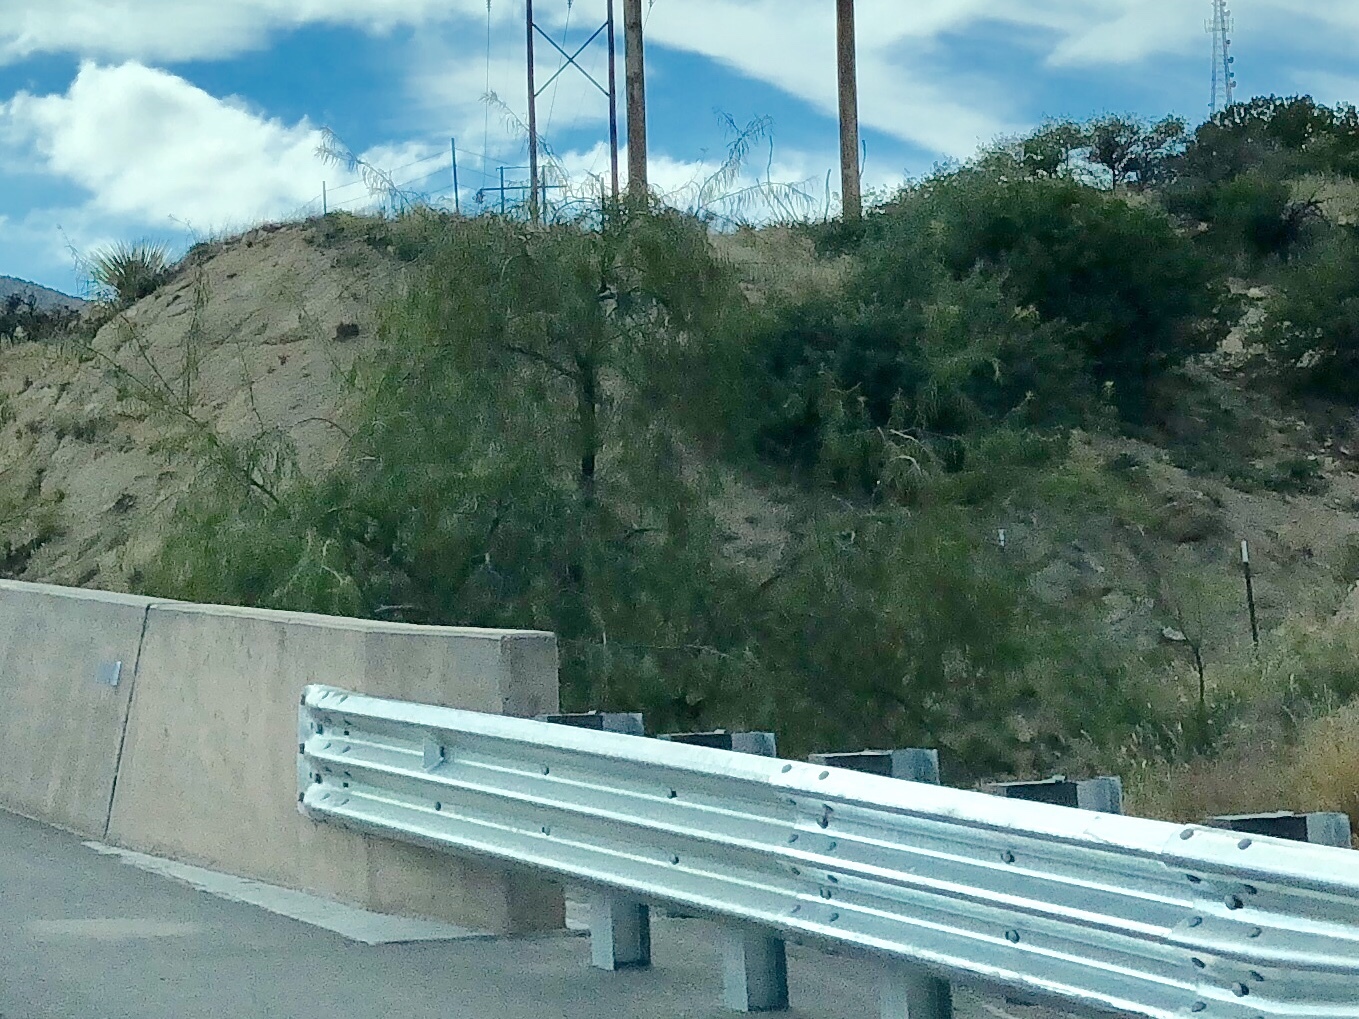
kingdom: Plantae
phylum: Tracheophyta
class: Magnoliopsida
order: Lamiales
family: Bignoniaceae
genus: Chilopsis
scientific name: Chilopsis linearis
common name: Desert-willow
